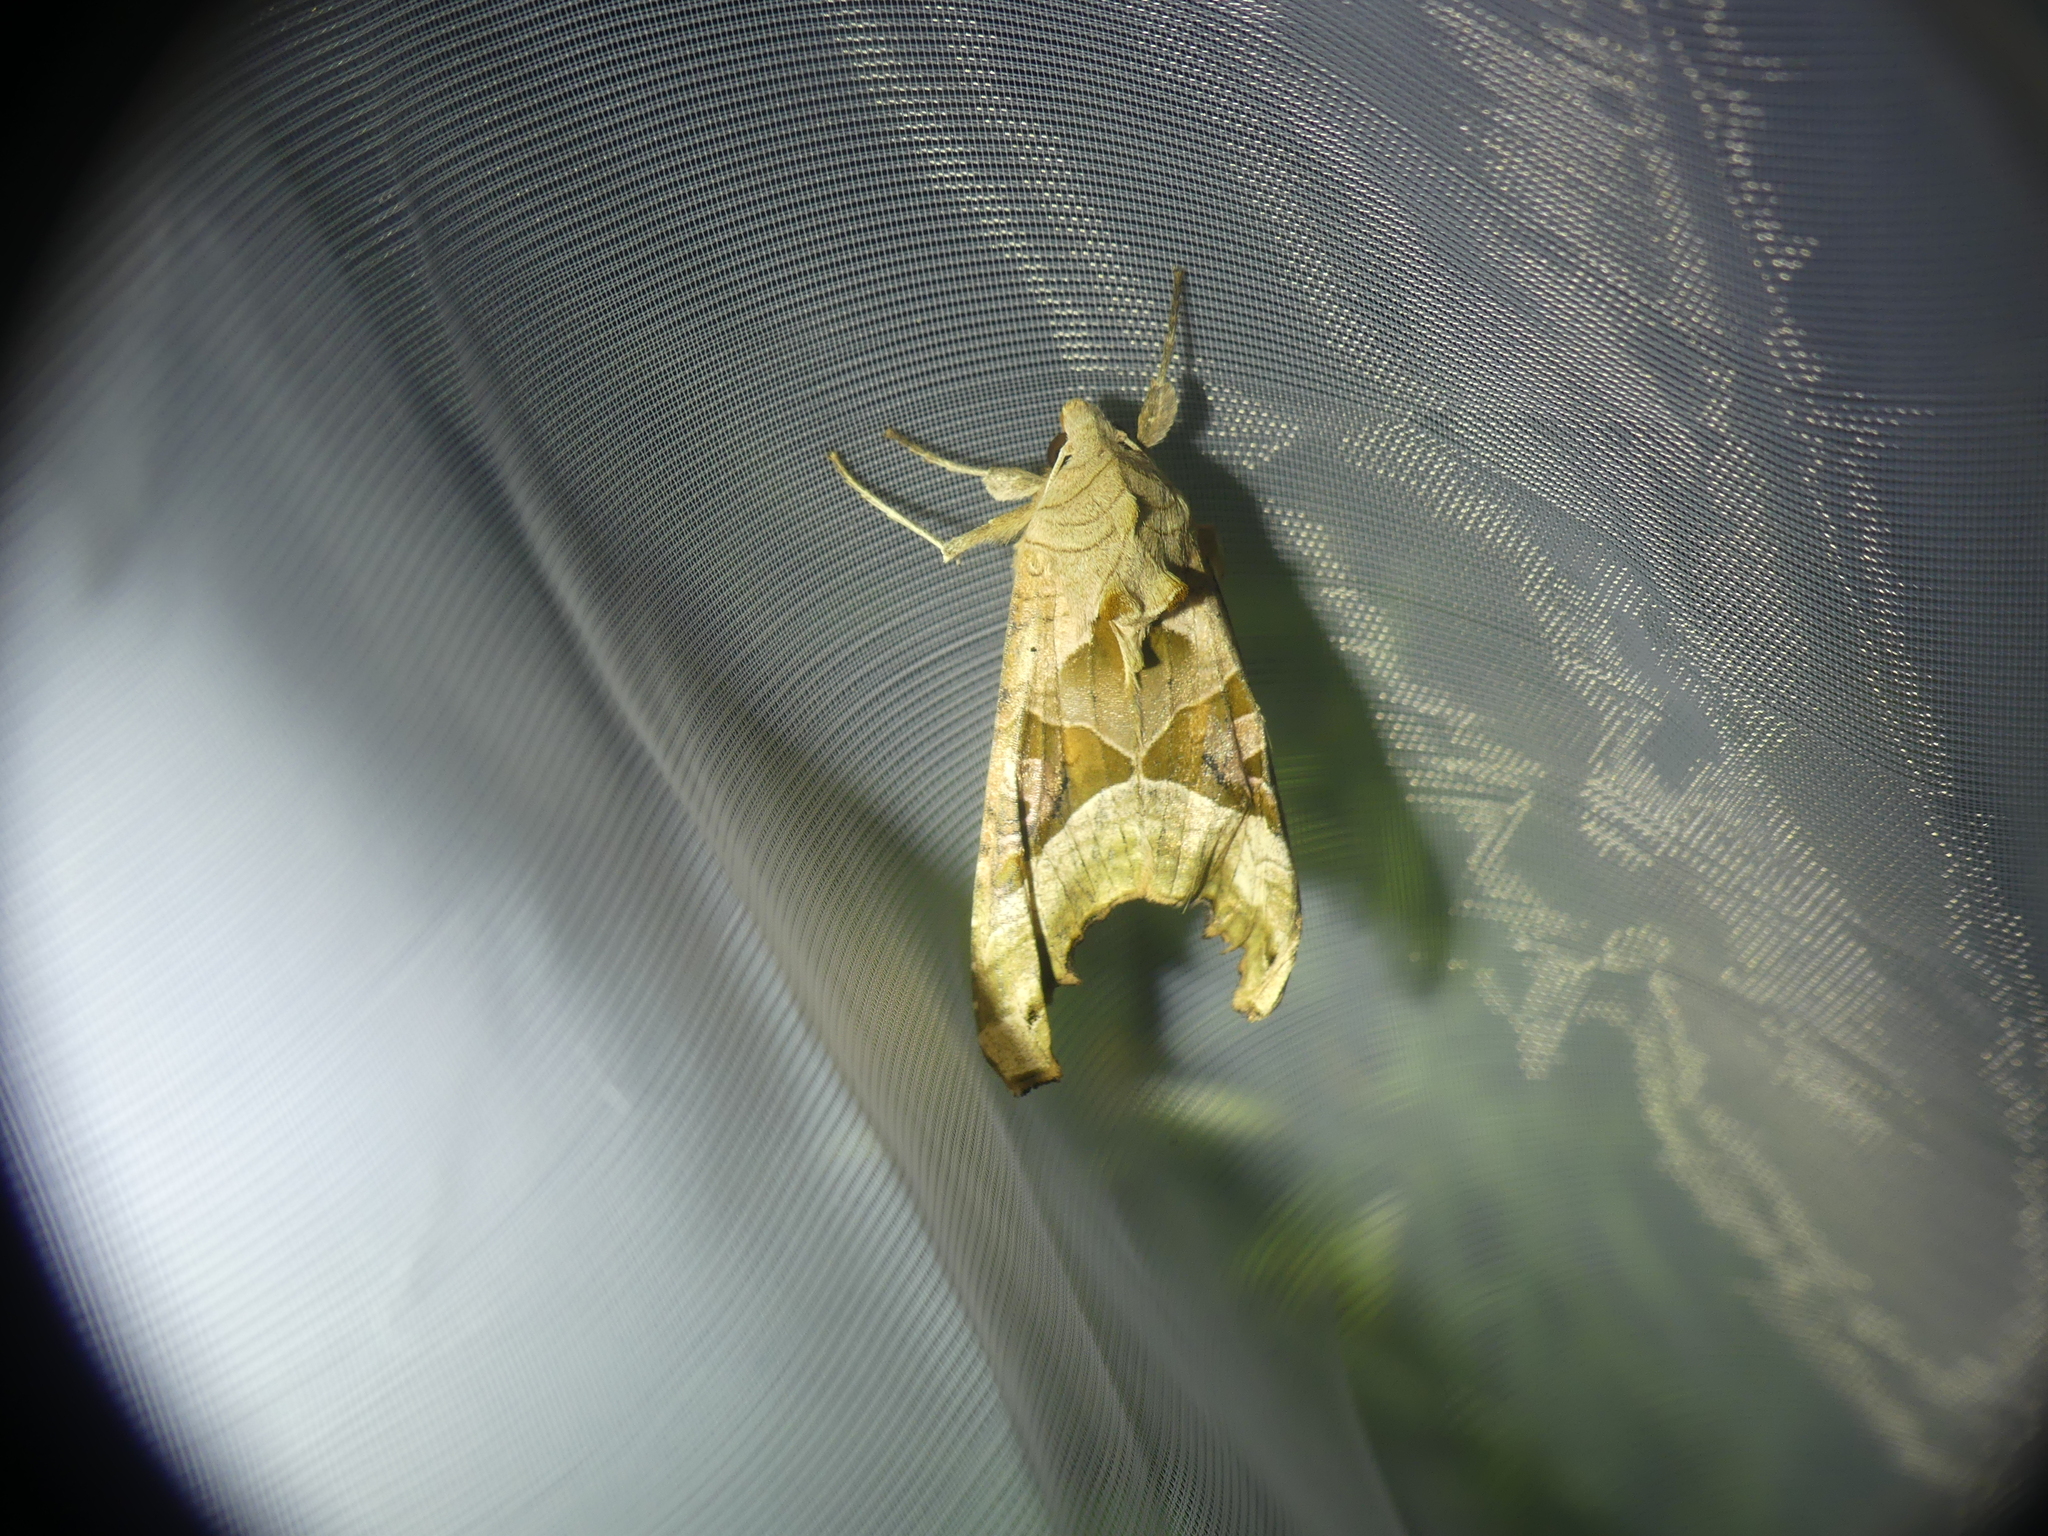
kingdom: Animalia
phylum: Arthropoda
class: Insecta
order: Lepidoptera
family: Noctuidae
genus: Phlogophora
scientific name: Phlogophora meticulosa
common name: Angle shades
